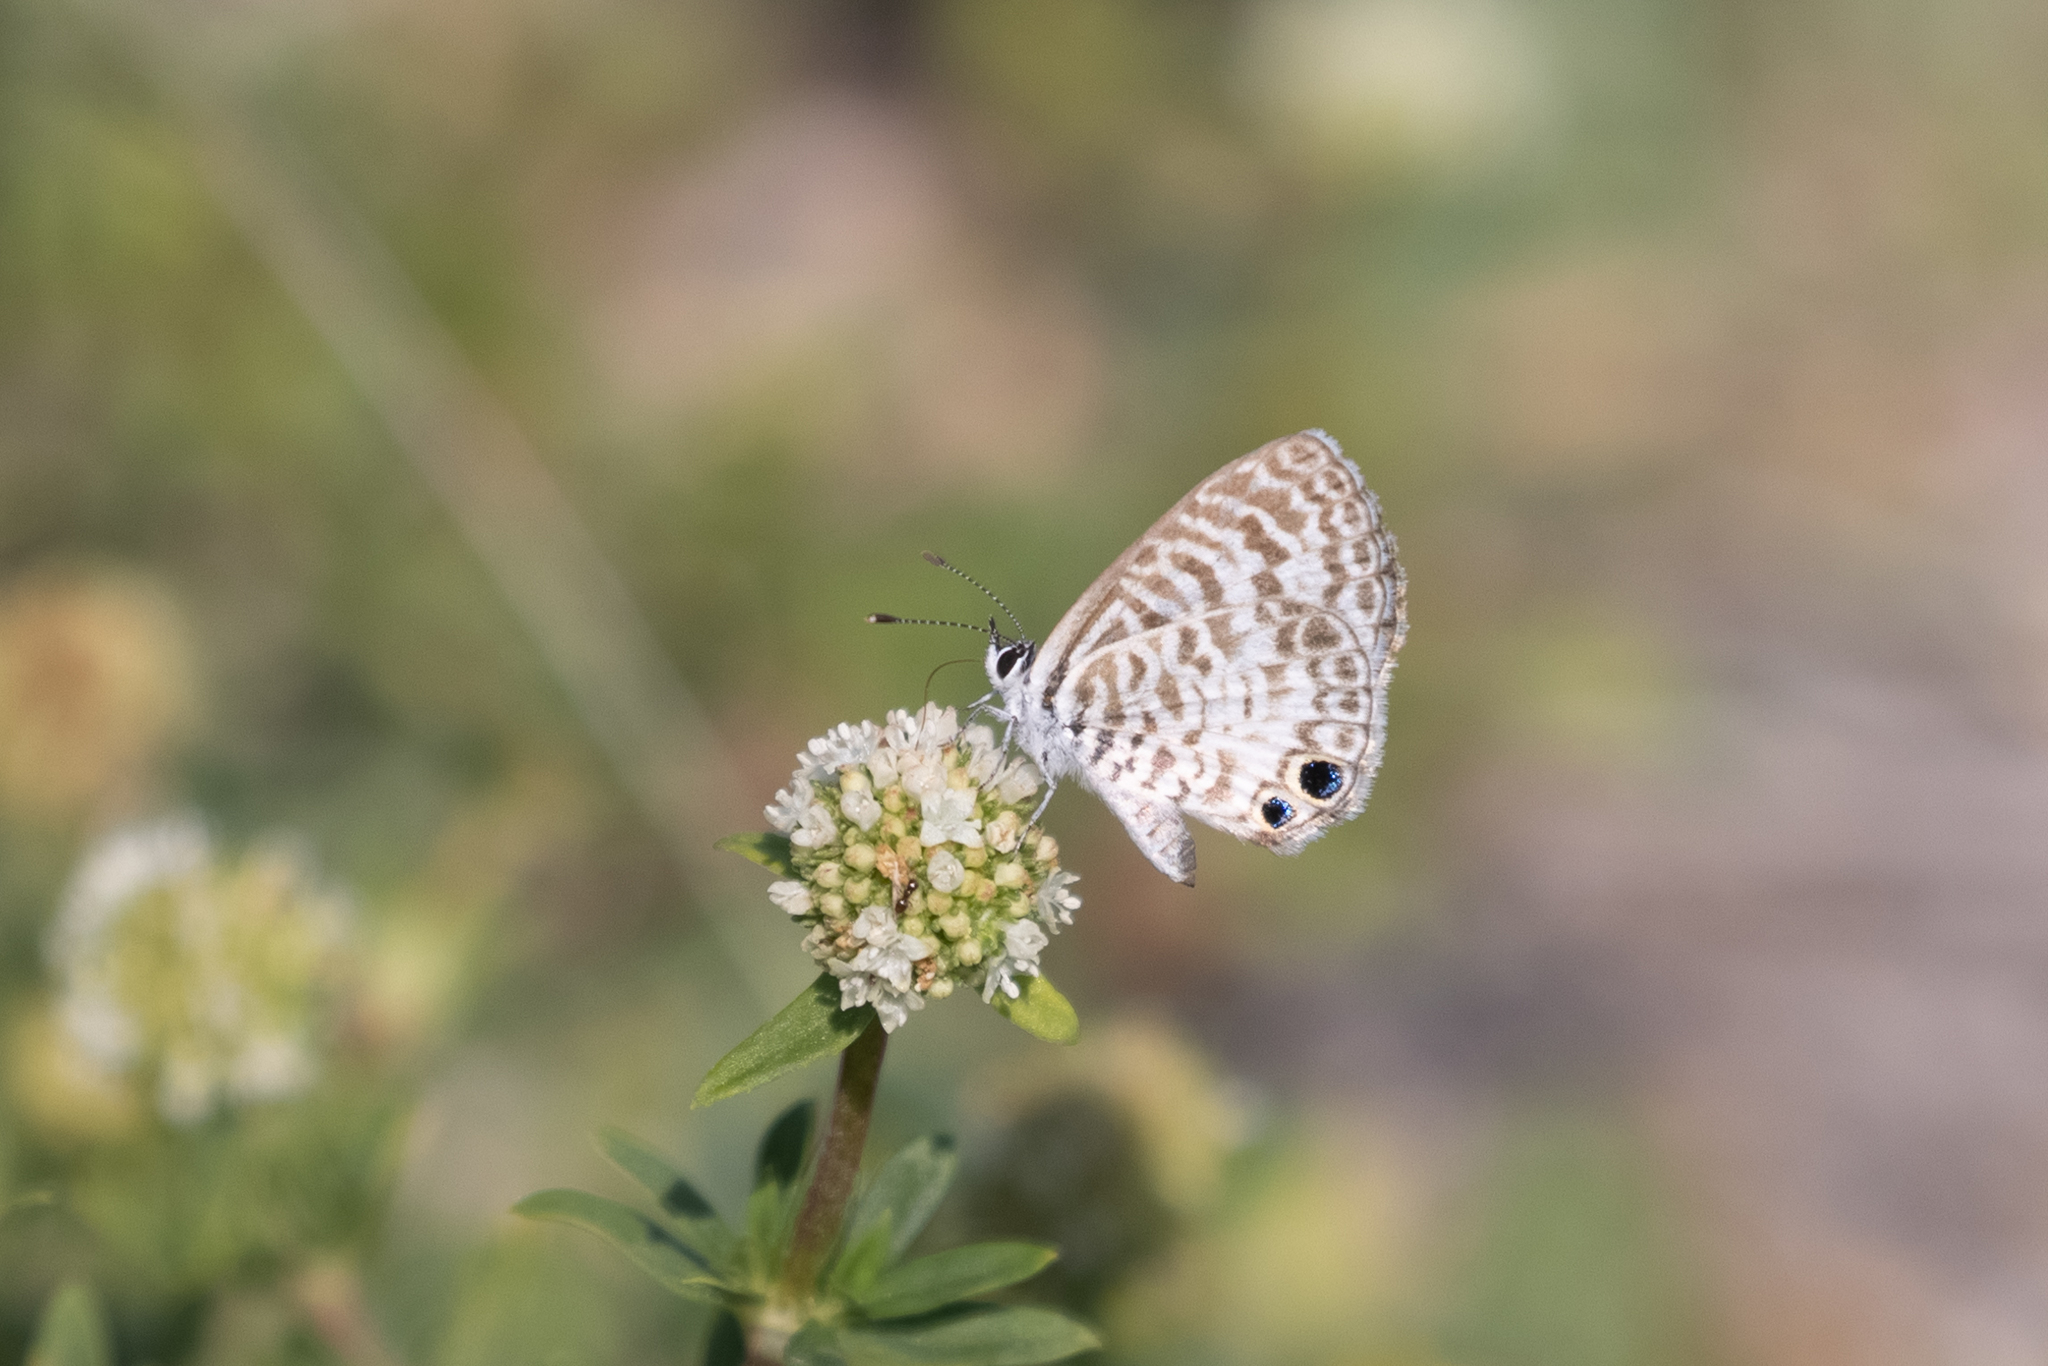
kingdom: Animalia
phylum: Arthropoda
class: Insecta
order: Lepidoptera
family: Lycaenidae
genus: Leptotes
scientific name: Leptotes cassius
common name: Cassius blue
